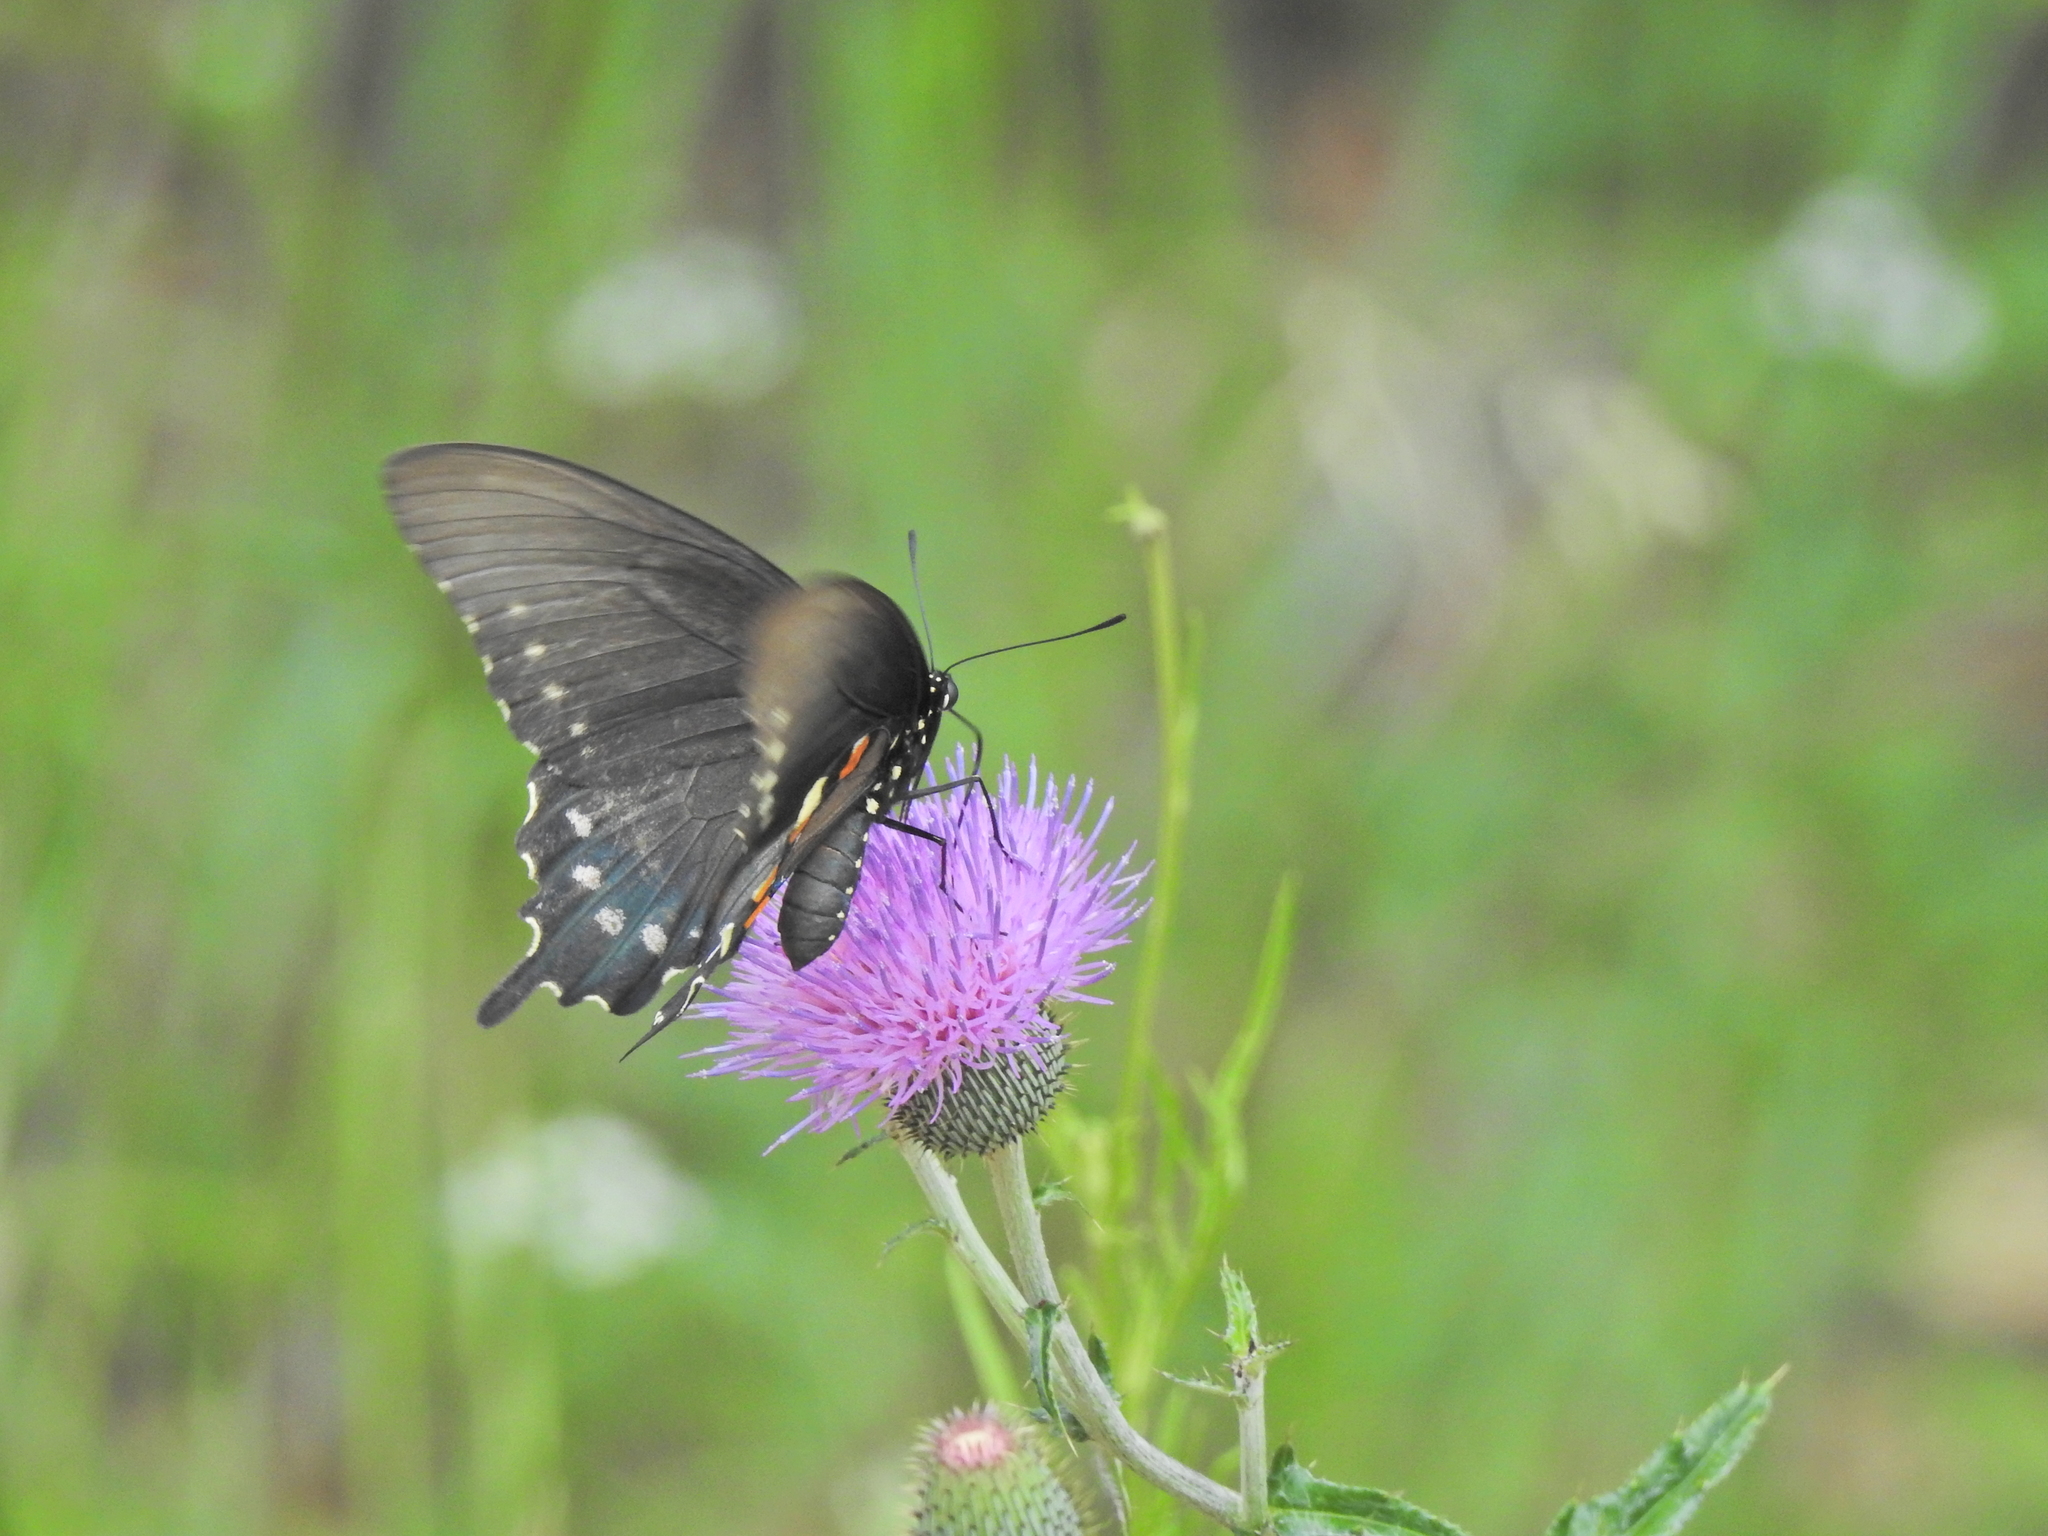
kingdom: Animalia
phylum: Arthropoda
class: Insecta
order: Lepidoptera
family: Papilionidae
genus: Battus
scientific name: Battus philenor
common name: Pipevine swallowtail
